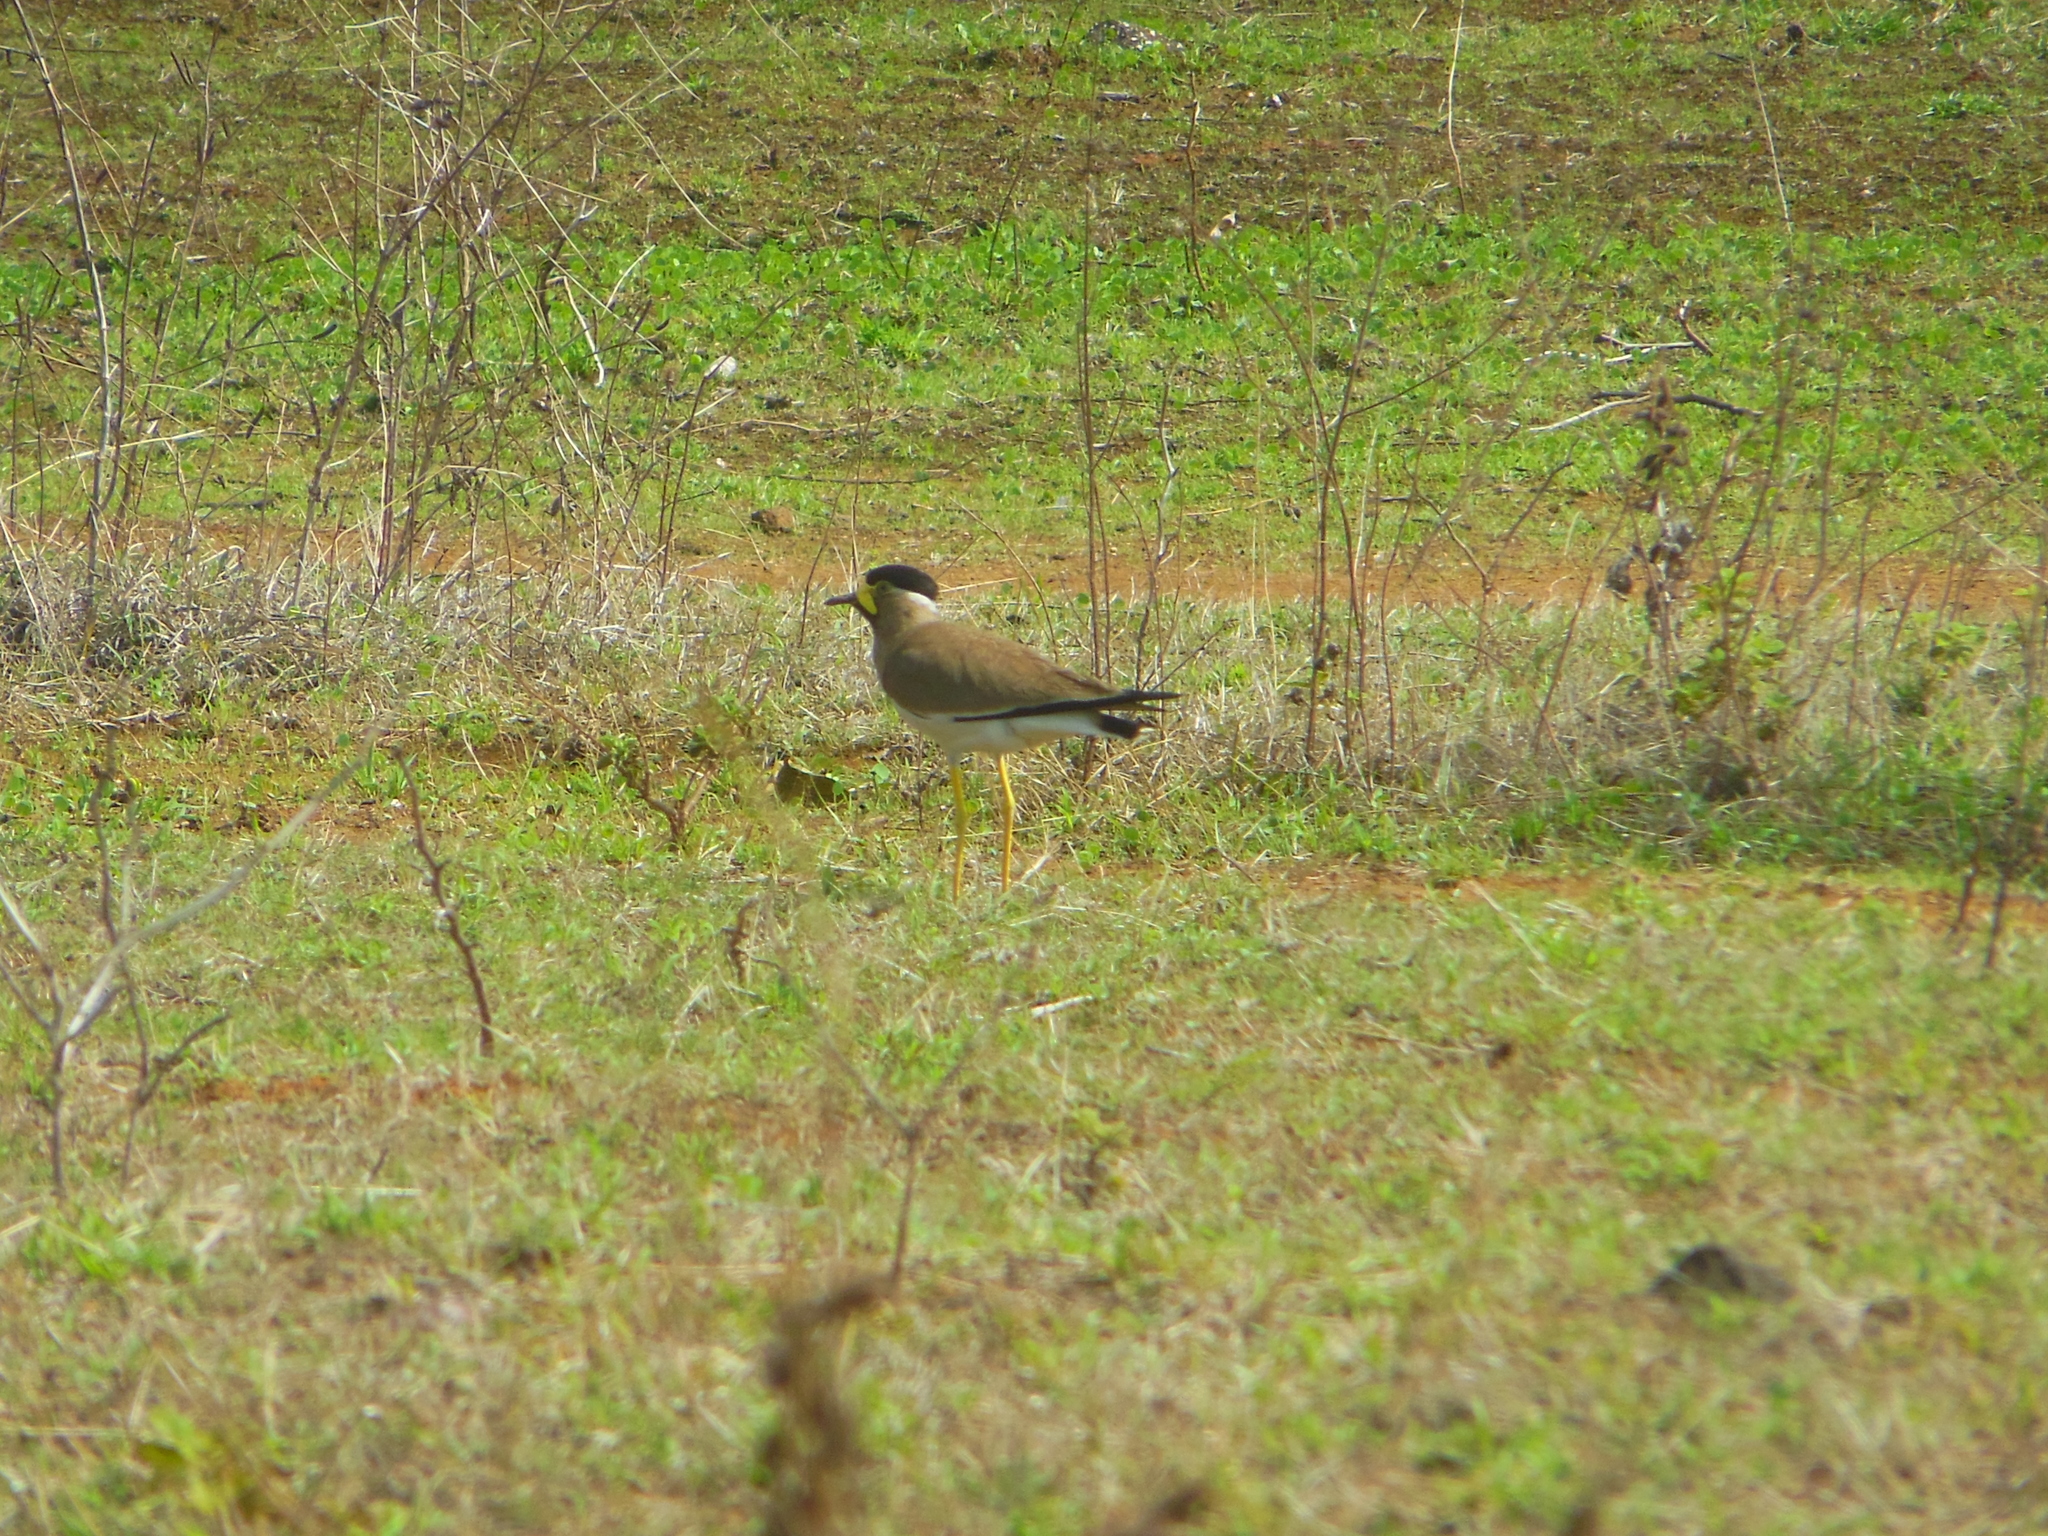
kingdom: Animalia
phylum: Chordata
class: Aves
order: Charadriiformes
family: Charadriidae
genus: Vanellus
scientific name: Vanellus malabaricus
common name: Yellow-wattled lapwing
